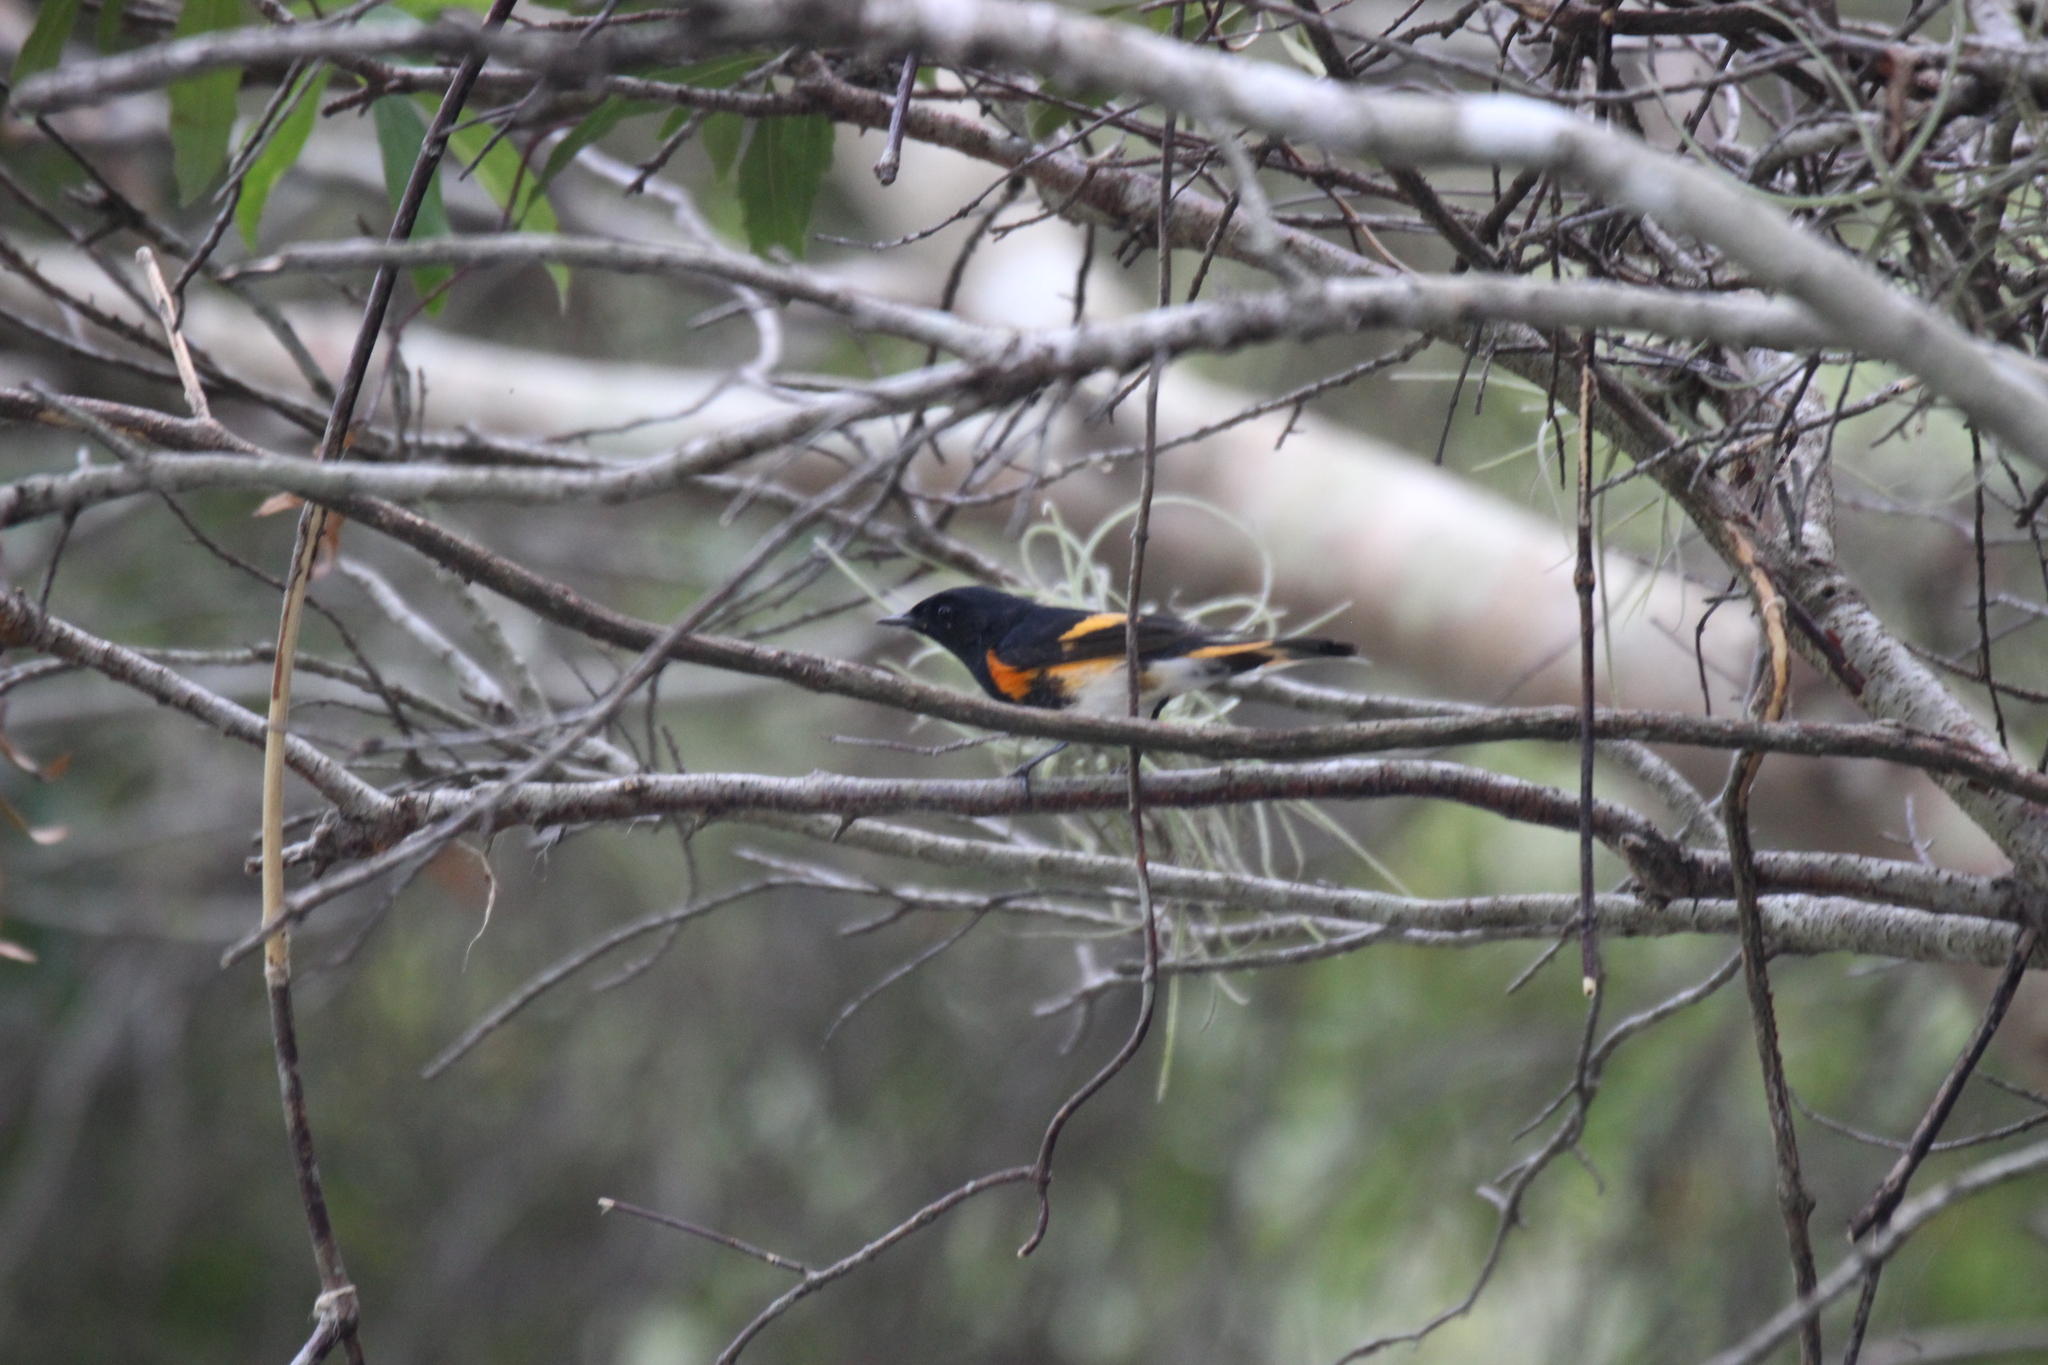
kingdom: Animalia
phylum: Chordata
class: Aves
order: Passeriformes
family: Parulidae
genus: Setophaga
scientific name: Setophaga ruticilla
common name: American redstart
